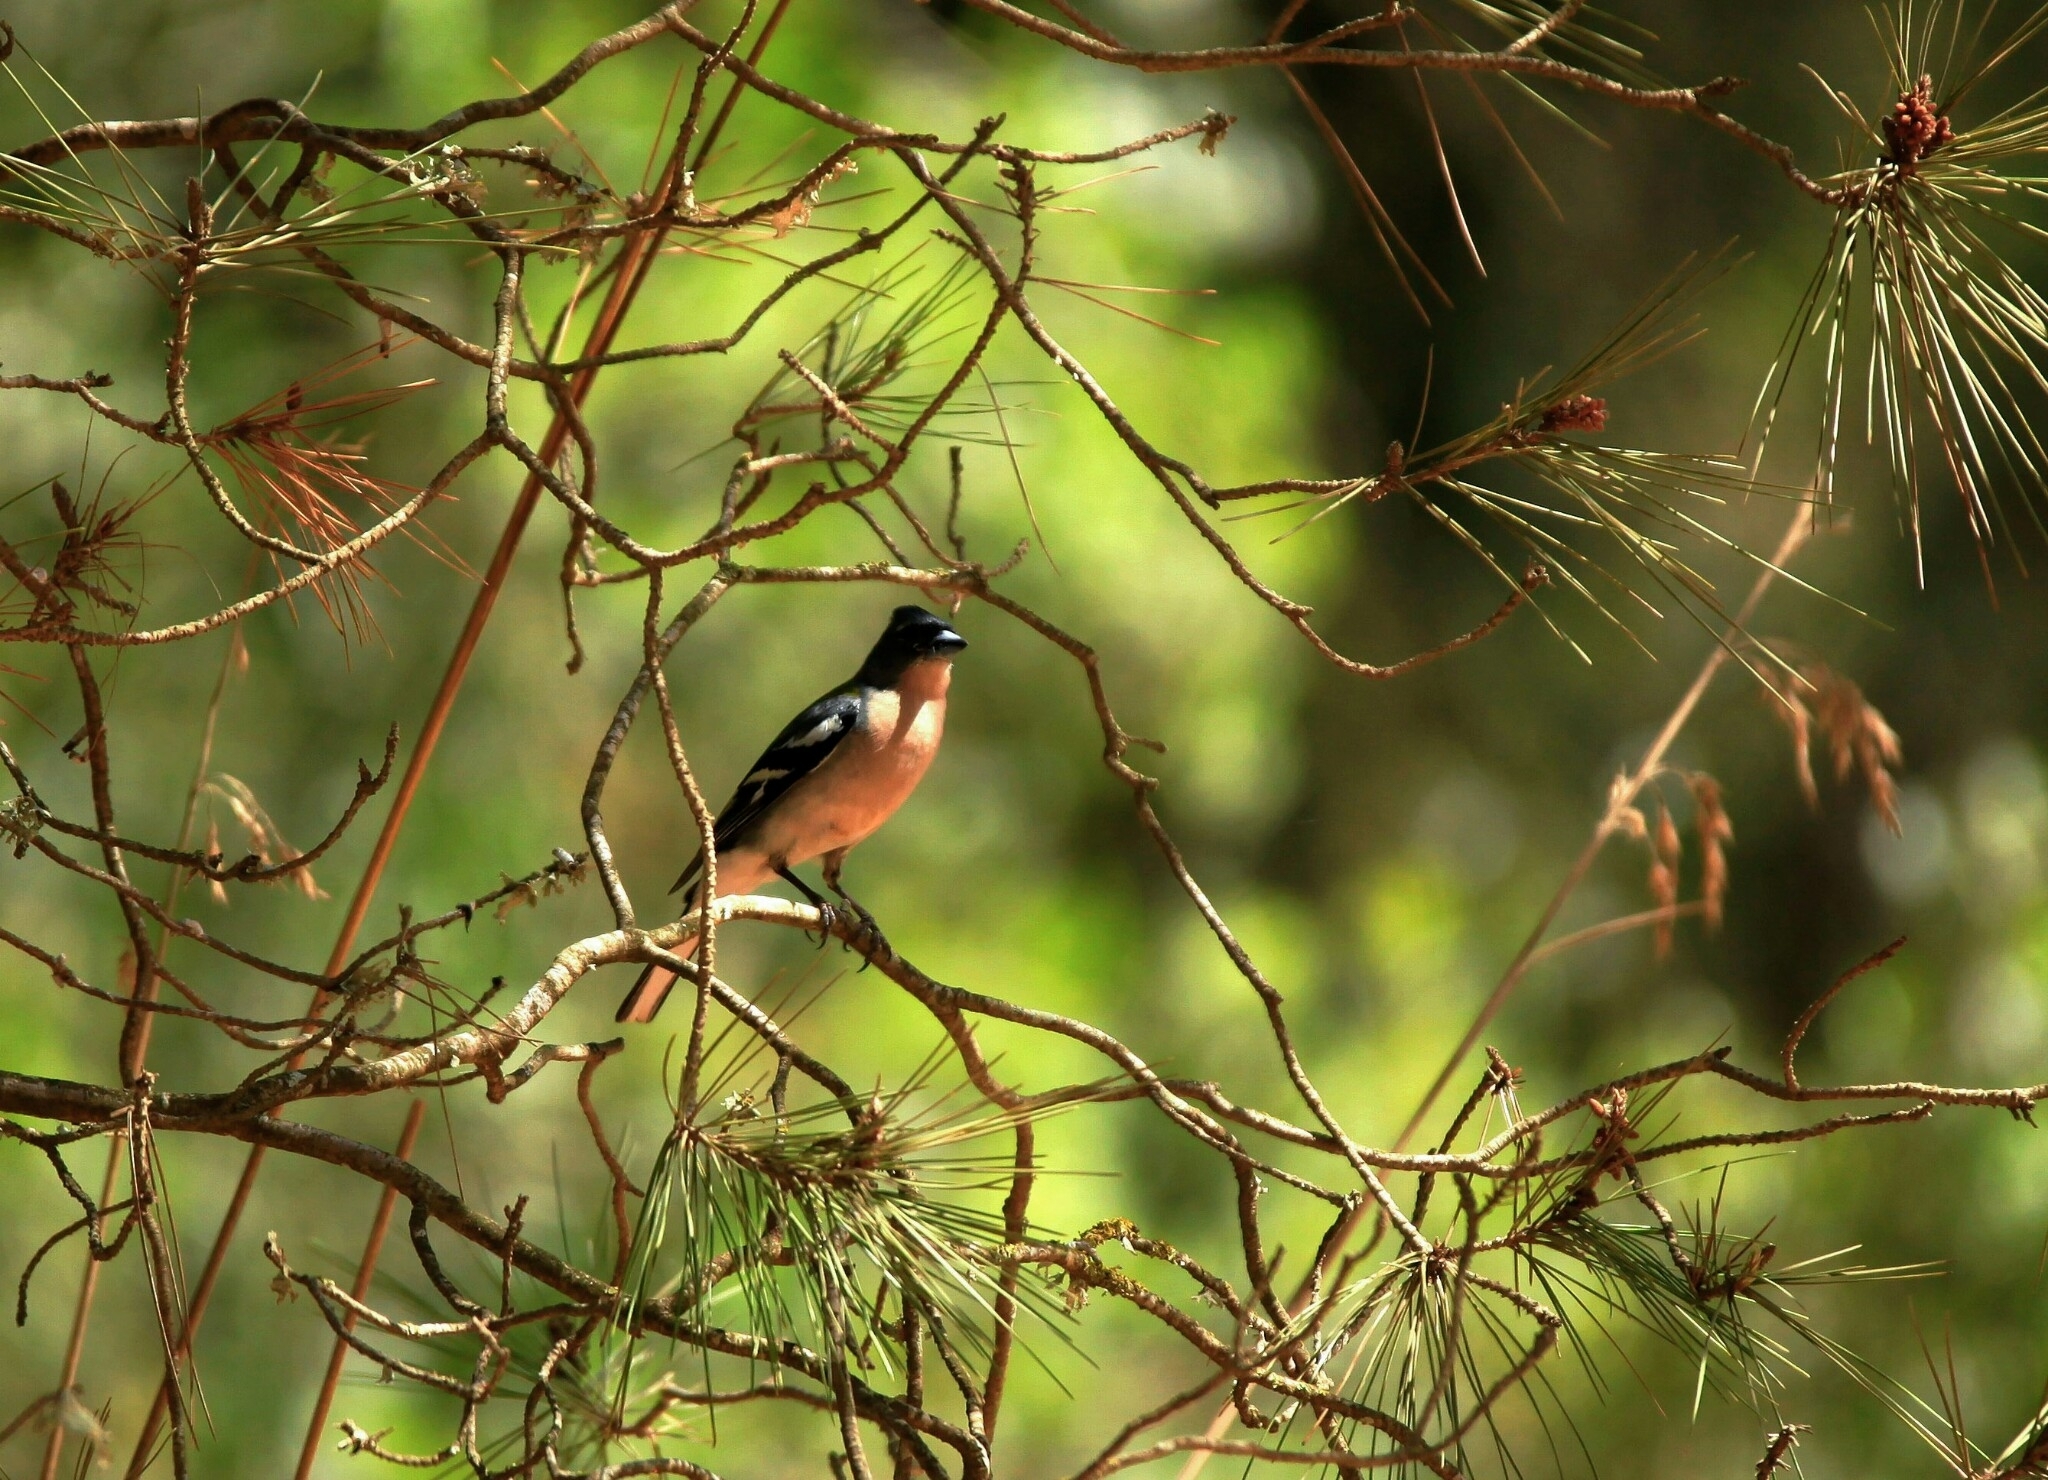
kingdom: Animalia
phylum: Chordata
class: Aves
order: Passeriformes
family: Fringillidae
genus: Fringilla
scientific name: Fringilla spodiogenys
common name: African chaffinch
